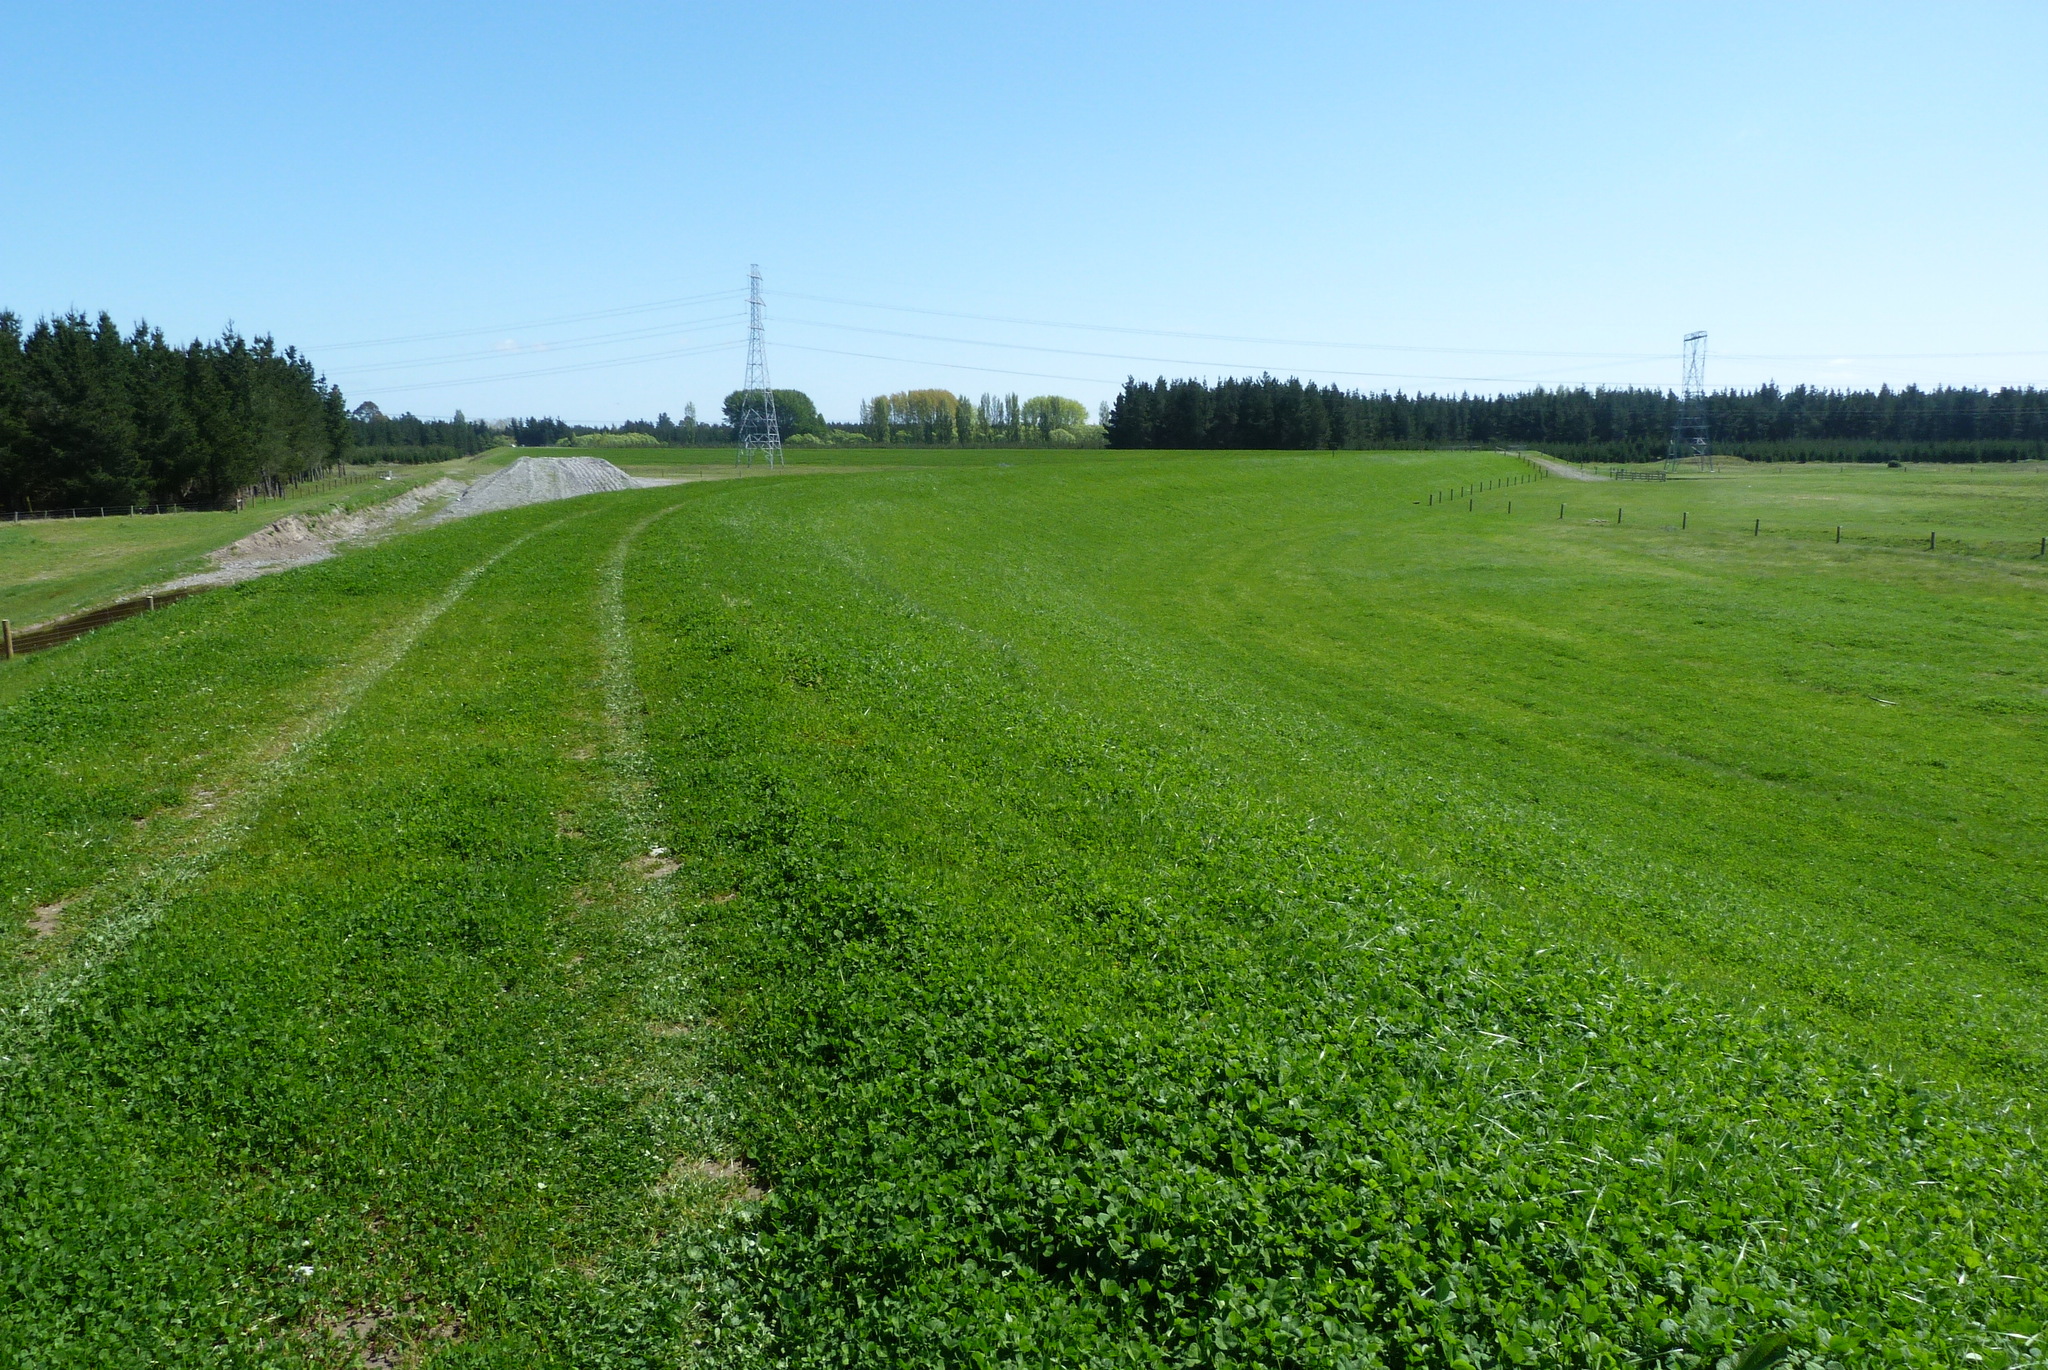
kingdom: Plantae
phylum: Tracheophyta
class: Magnoliopsida
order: Fabales
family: Fabaceae
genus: Trifolium
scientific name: Trifolium repens
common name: White clover
